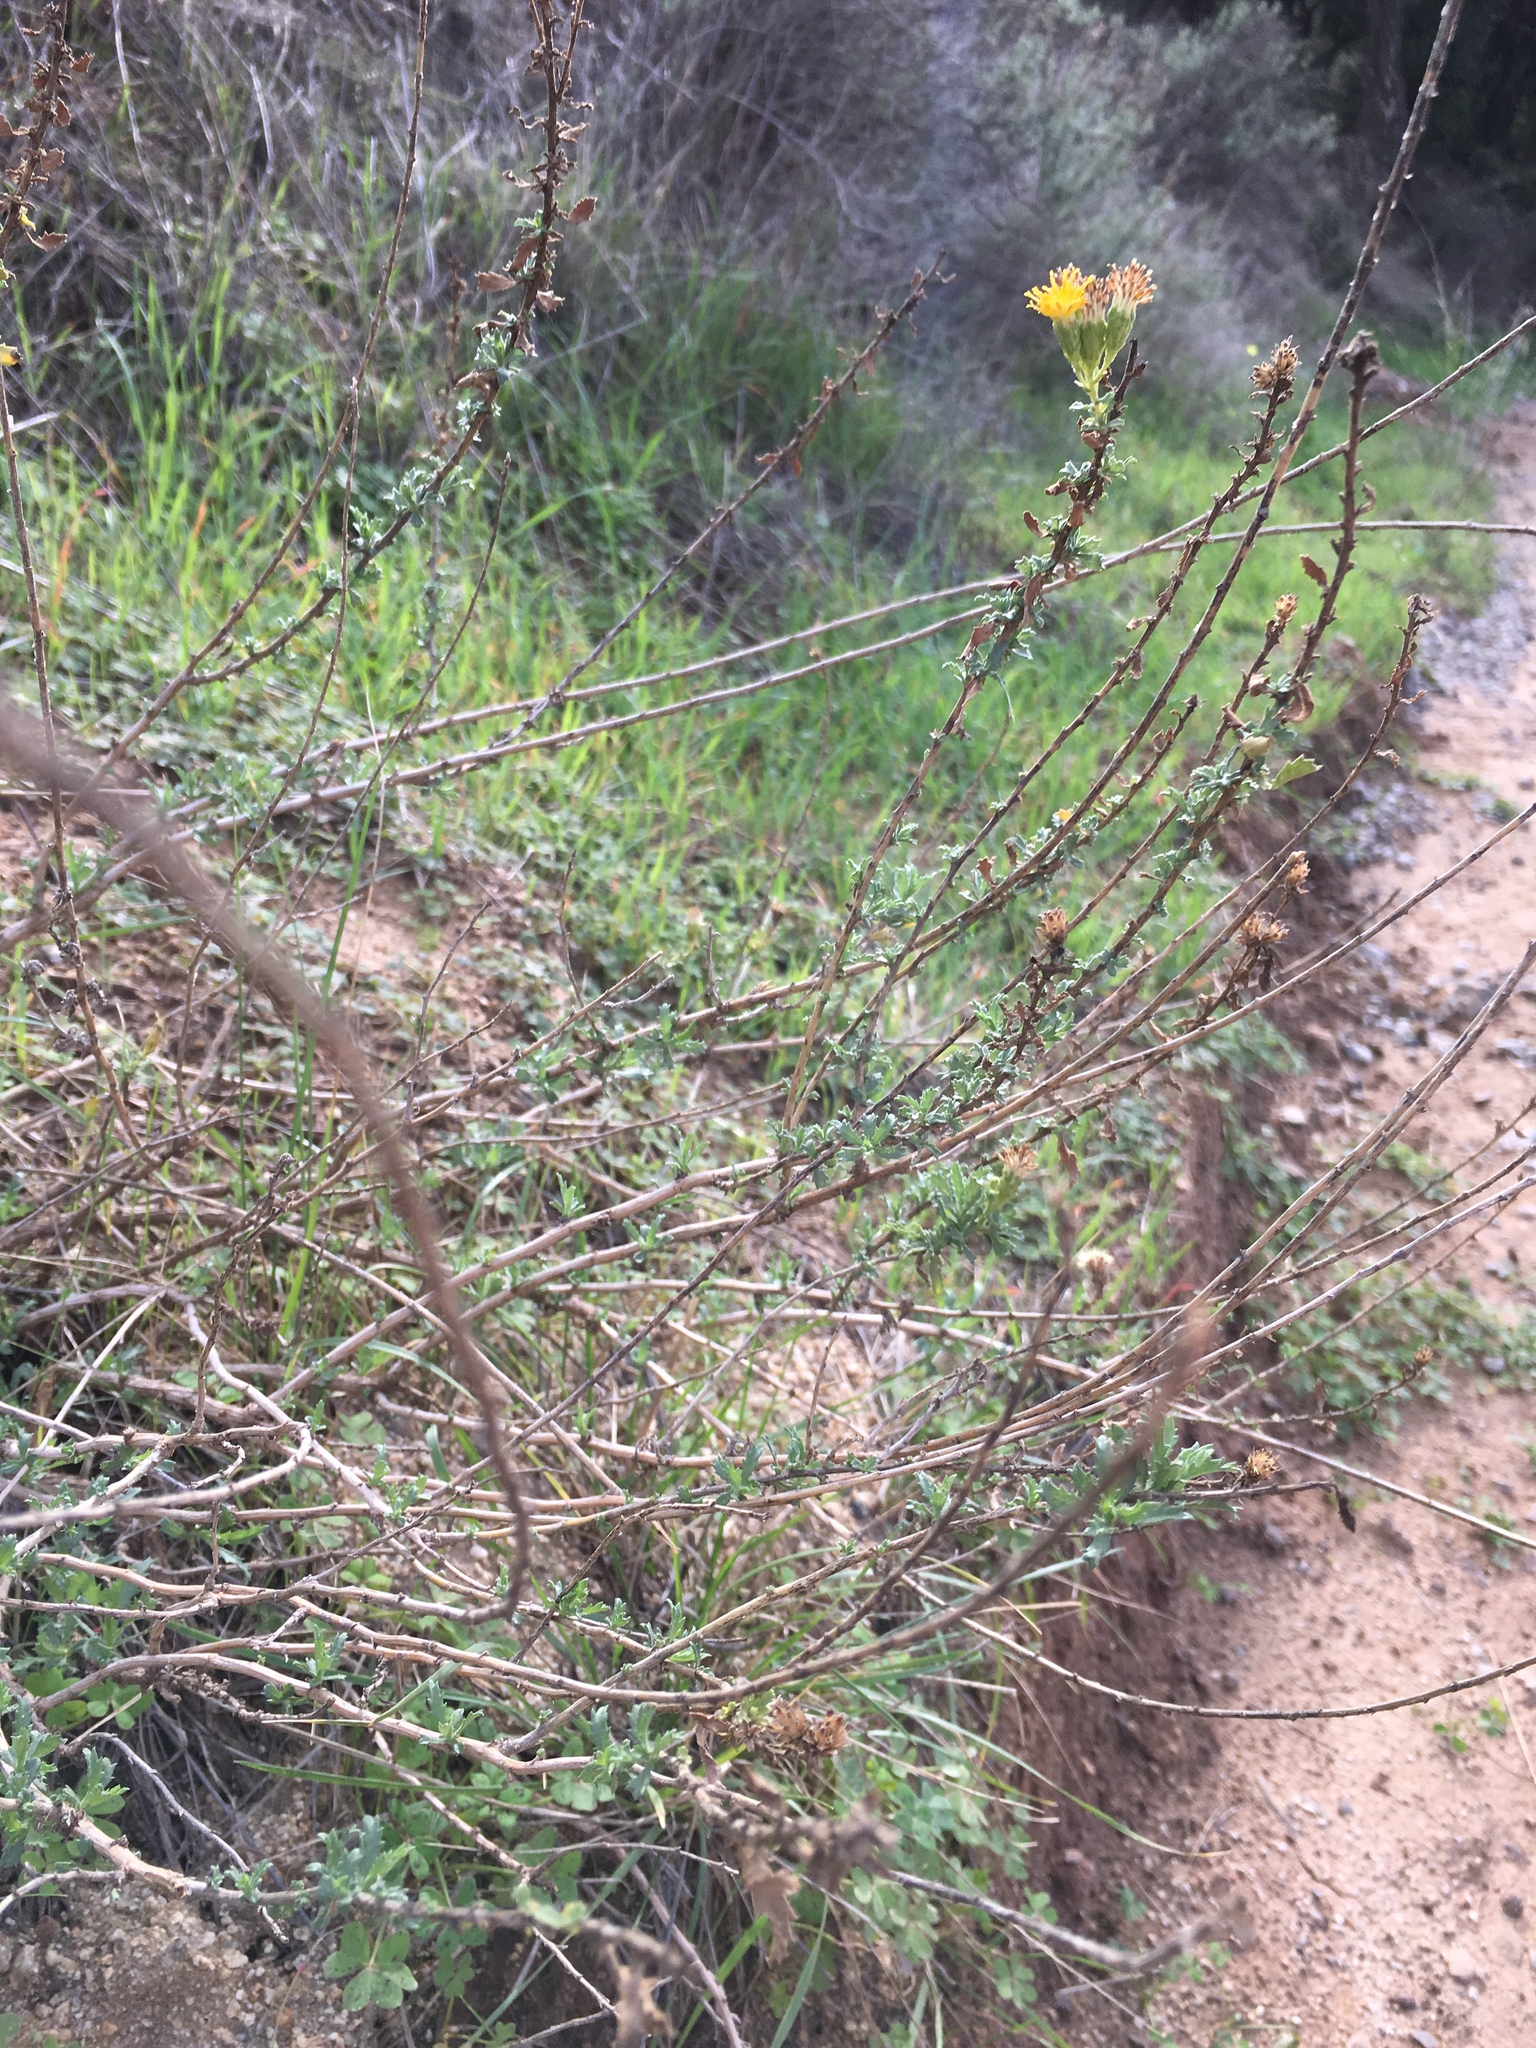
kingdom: Plantae
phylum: Tracheophyta
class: Magnoliopsida
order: Asterales
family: Asteraceae
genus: Isocoma
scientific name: Isocoma menziesii
